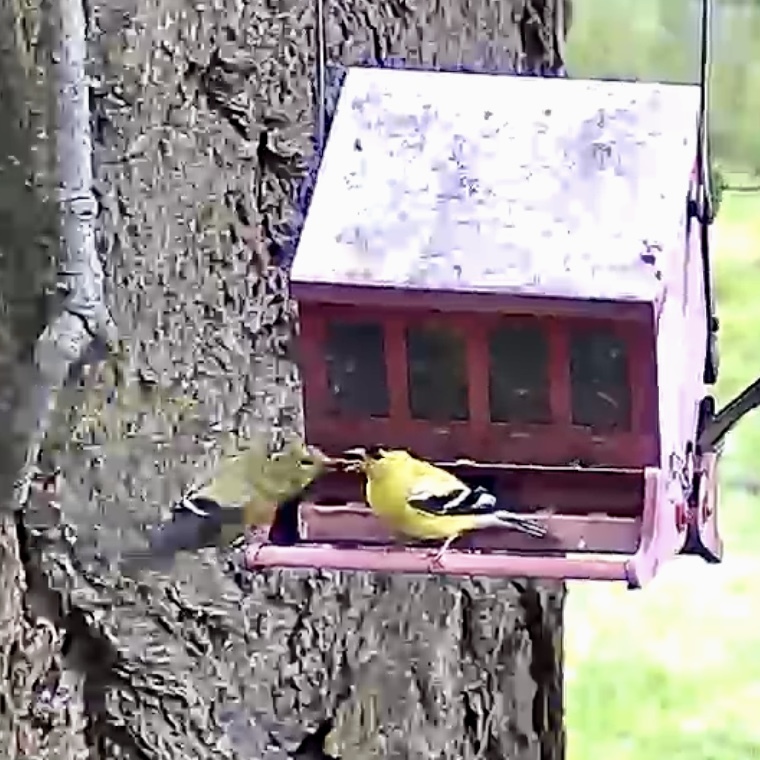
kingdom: Animalia
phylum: Chordata
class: Aves
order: Passeriformes
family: Fringillidae
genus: Spinus
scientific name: Spinus tristis
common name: American goldfinch
